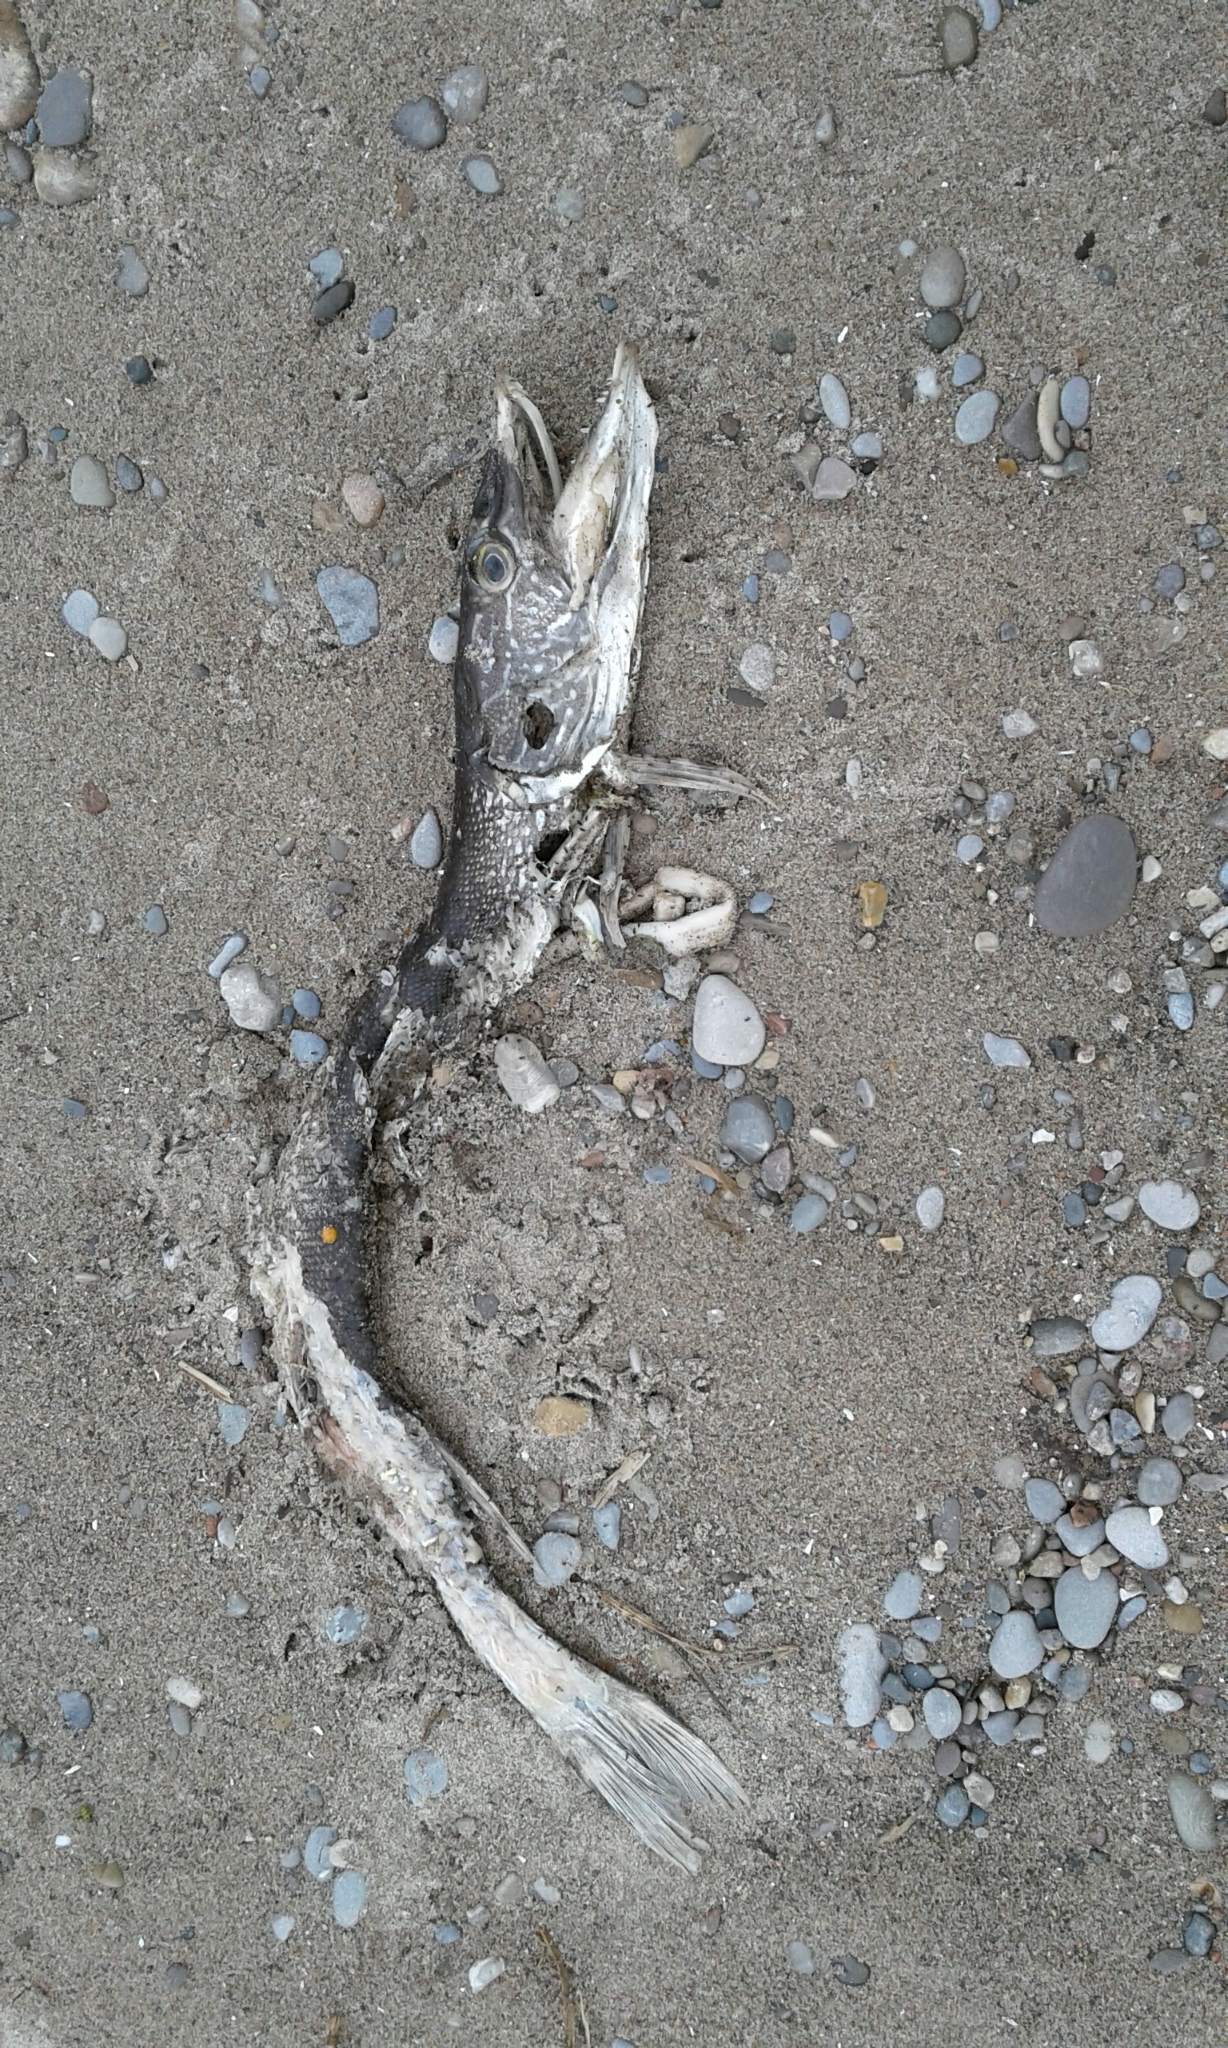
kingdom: Animalia
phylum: Chordata
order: Esociformes
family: Esocidae
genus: Esox
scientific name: Esox lucius
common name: Northern pike
